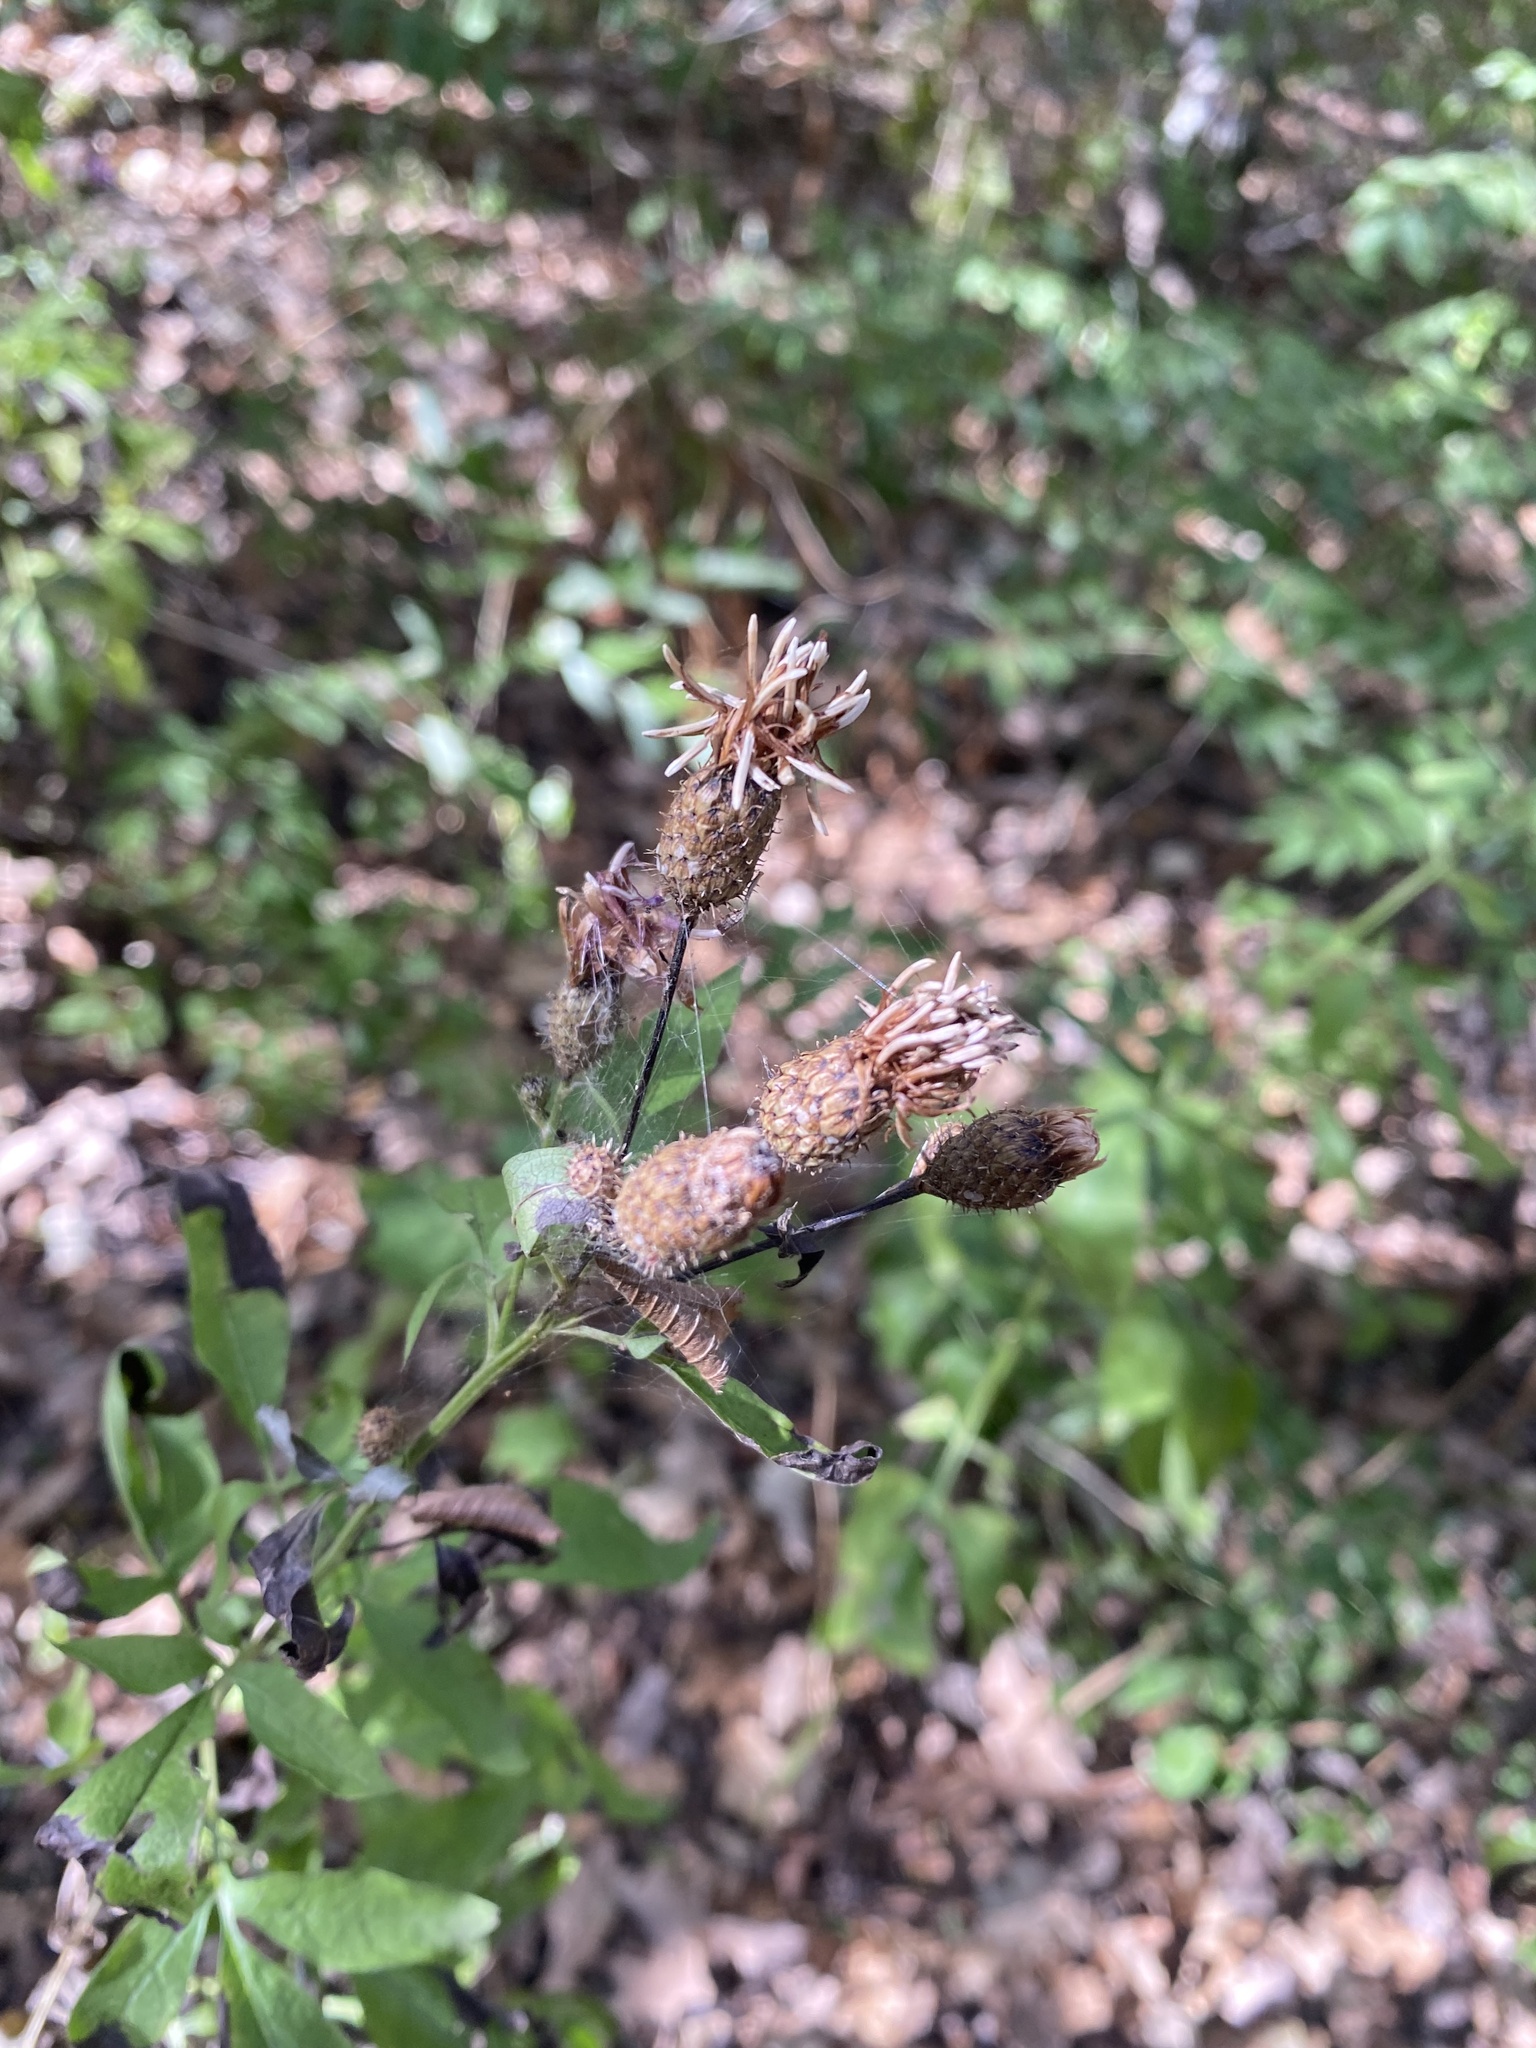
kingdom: Plantae
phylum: Tracheophyta
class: Magnoliopsida
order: Asterales
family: Asteraceae
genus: Klasea
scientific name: Klasea quinquefolia
